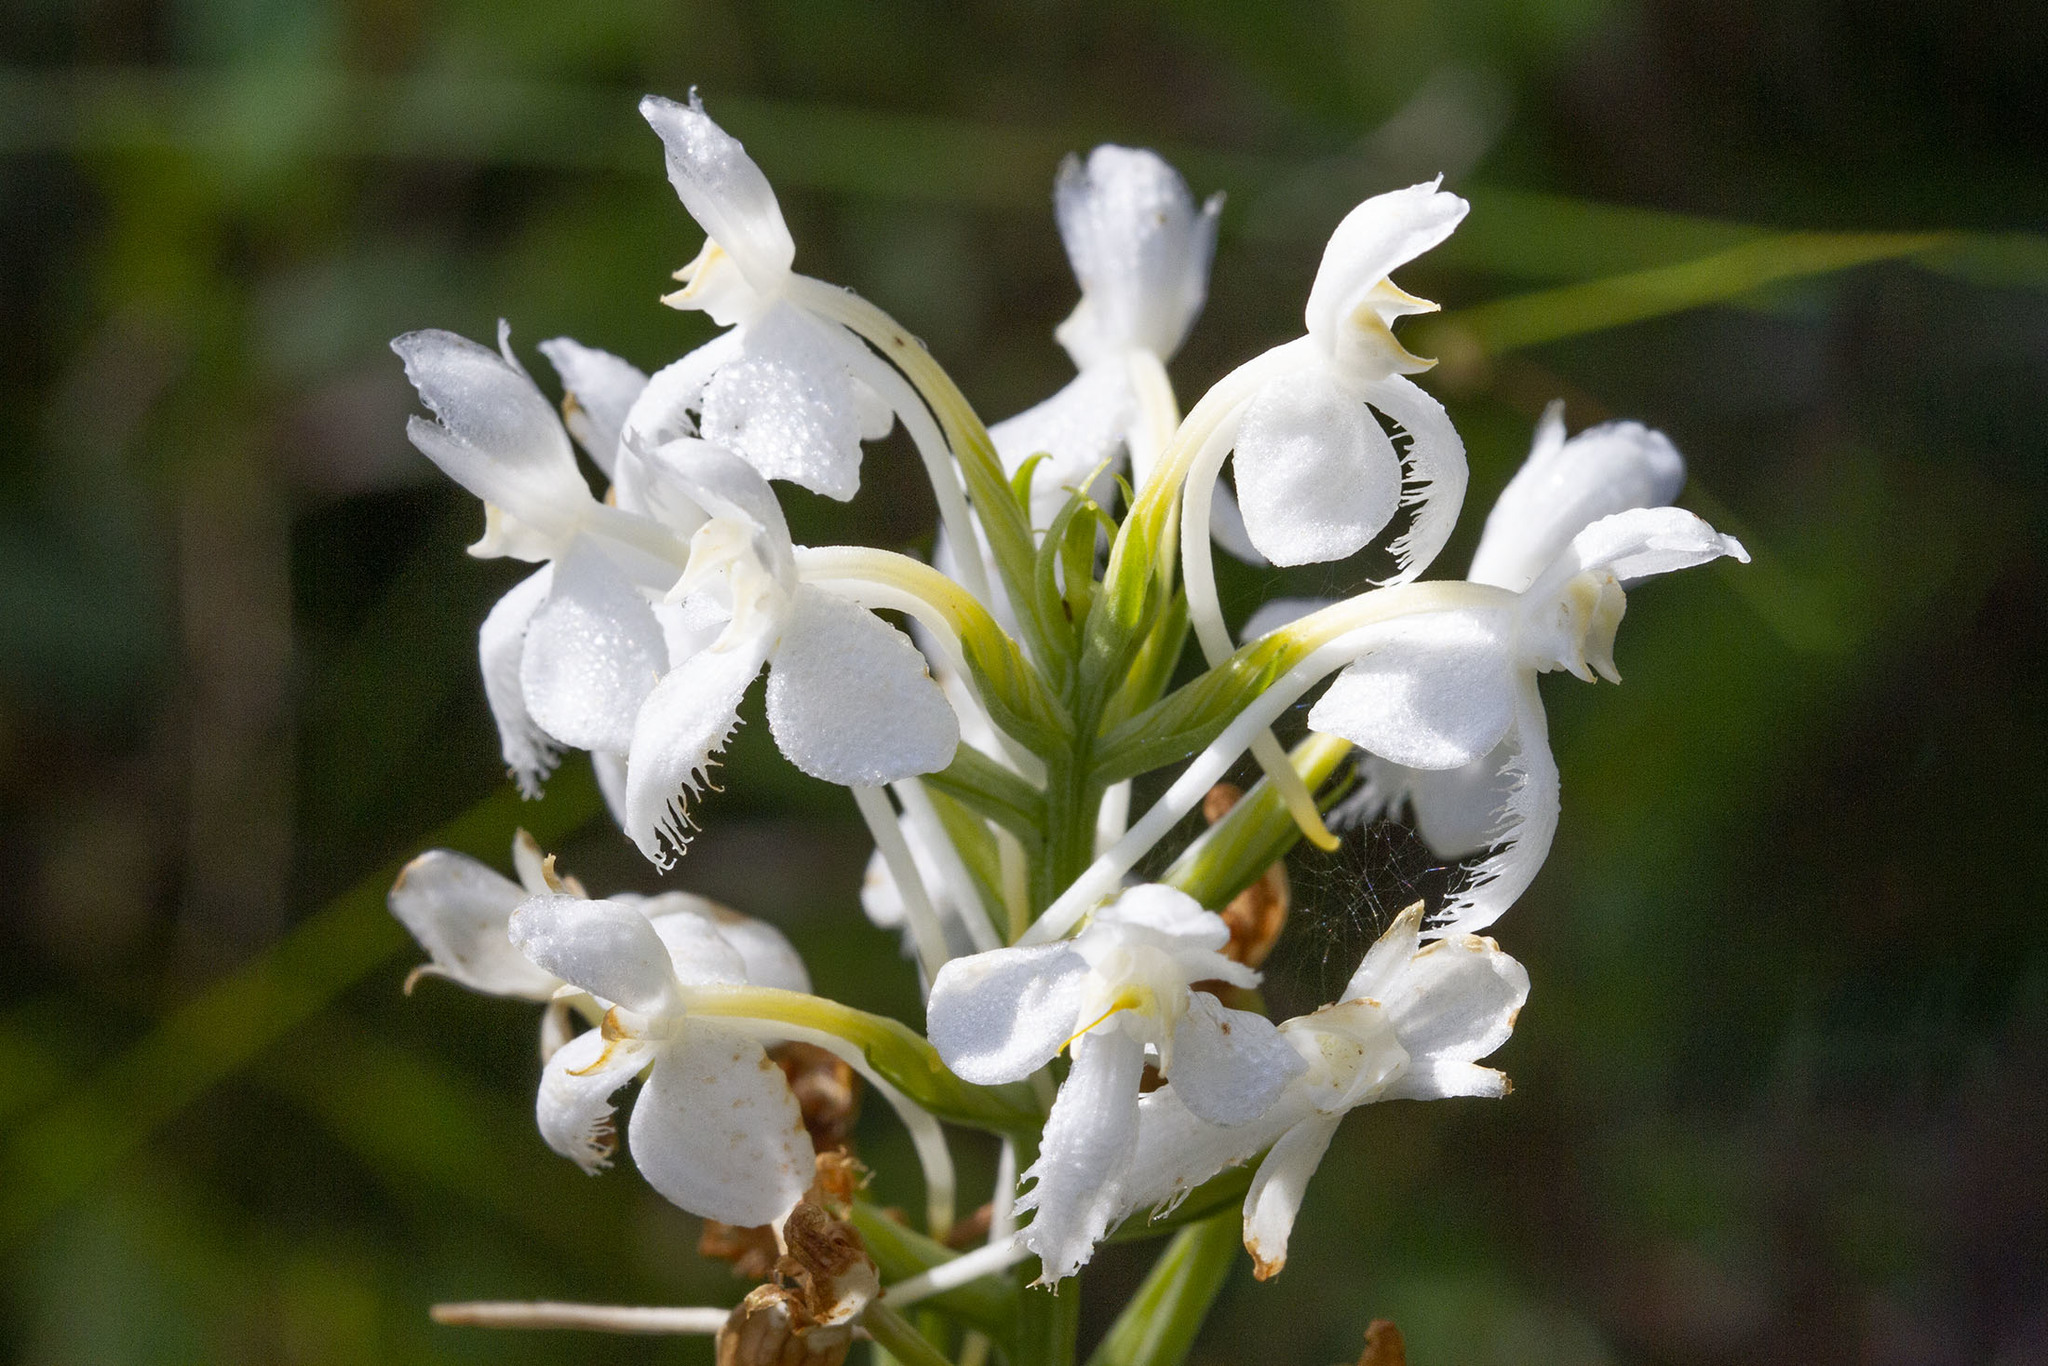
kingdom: Plantae
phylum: Tracheophyta
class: Liliopsida
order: Asparagales
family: Orchidaceae
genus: Platanthera
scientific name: Platanthera blephariglottis
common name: White fringed orchid
